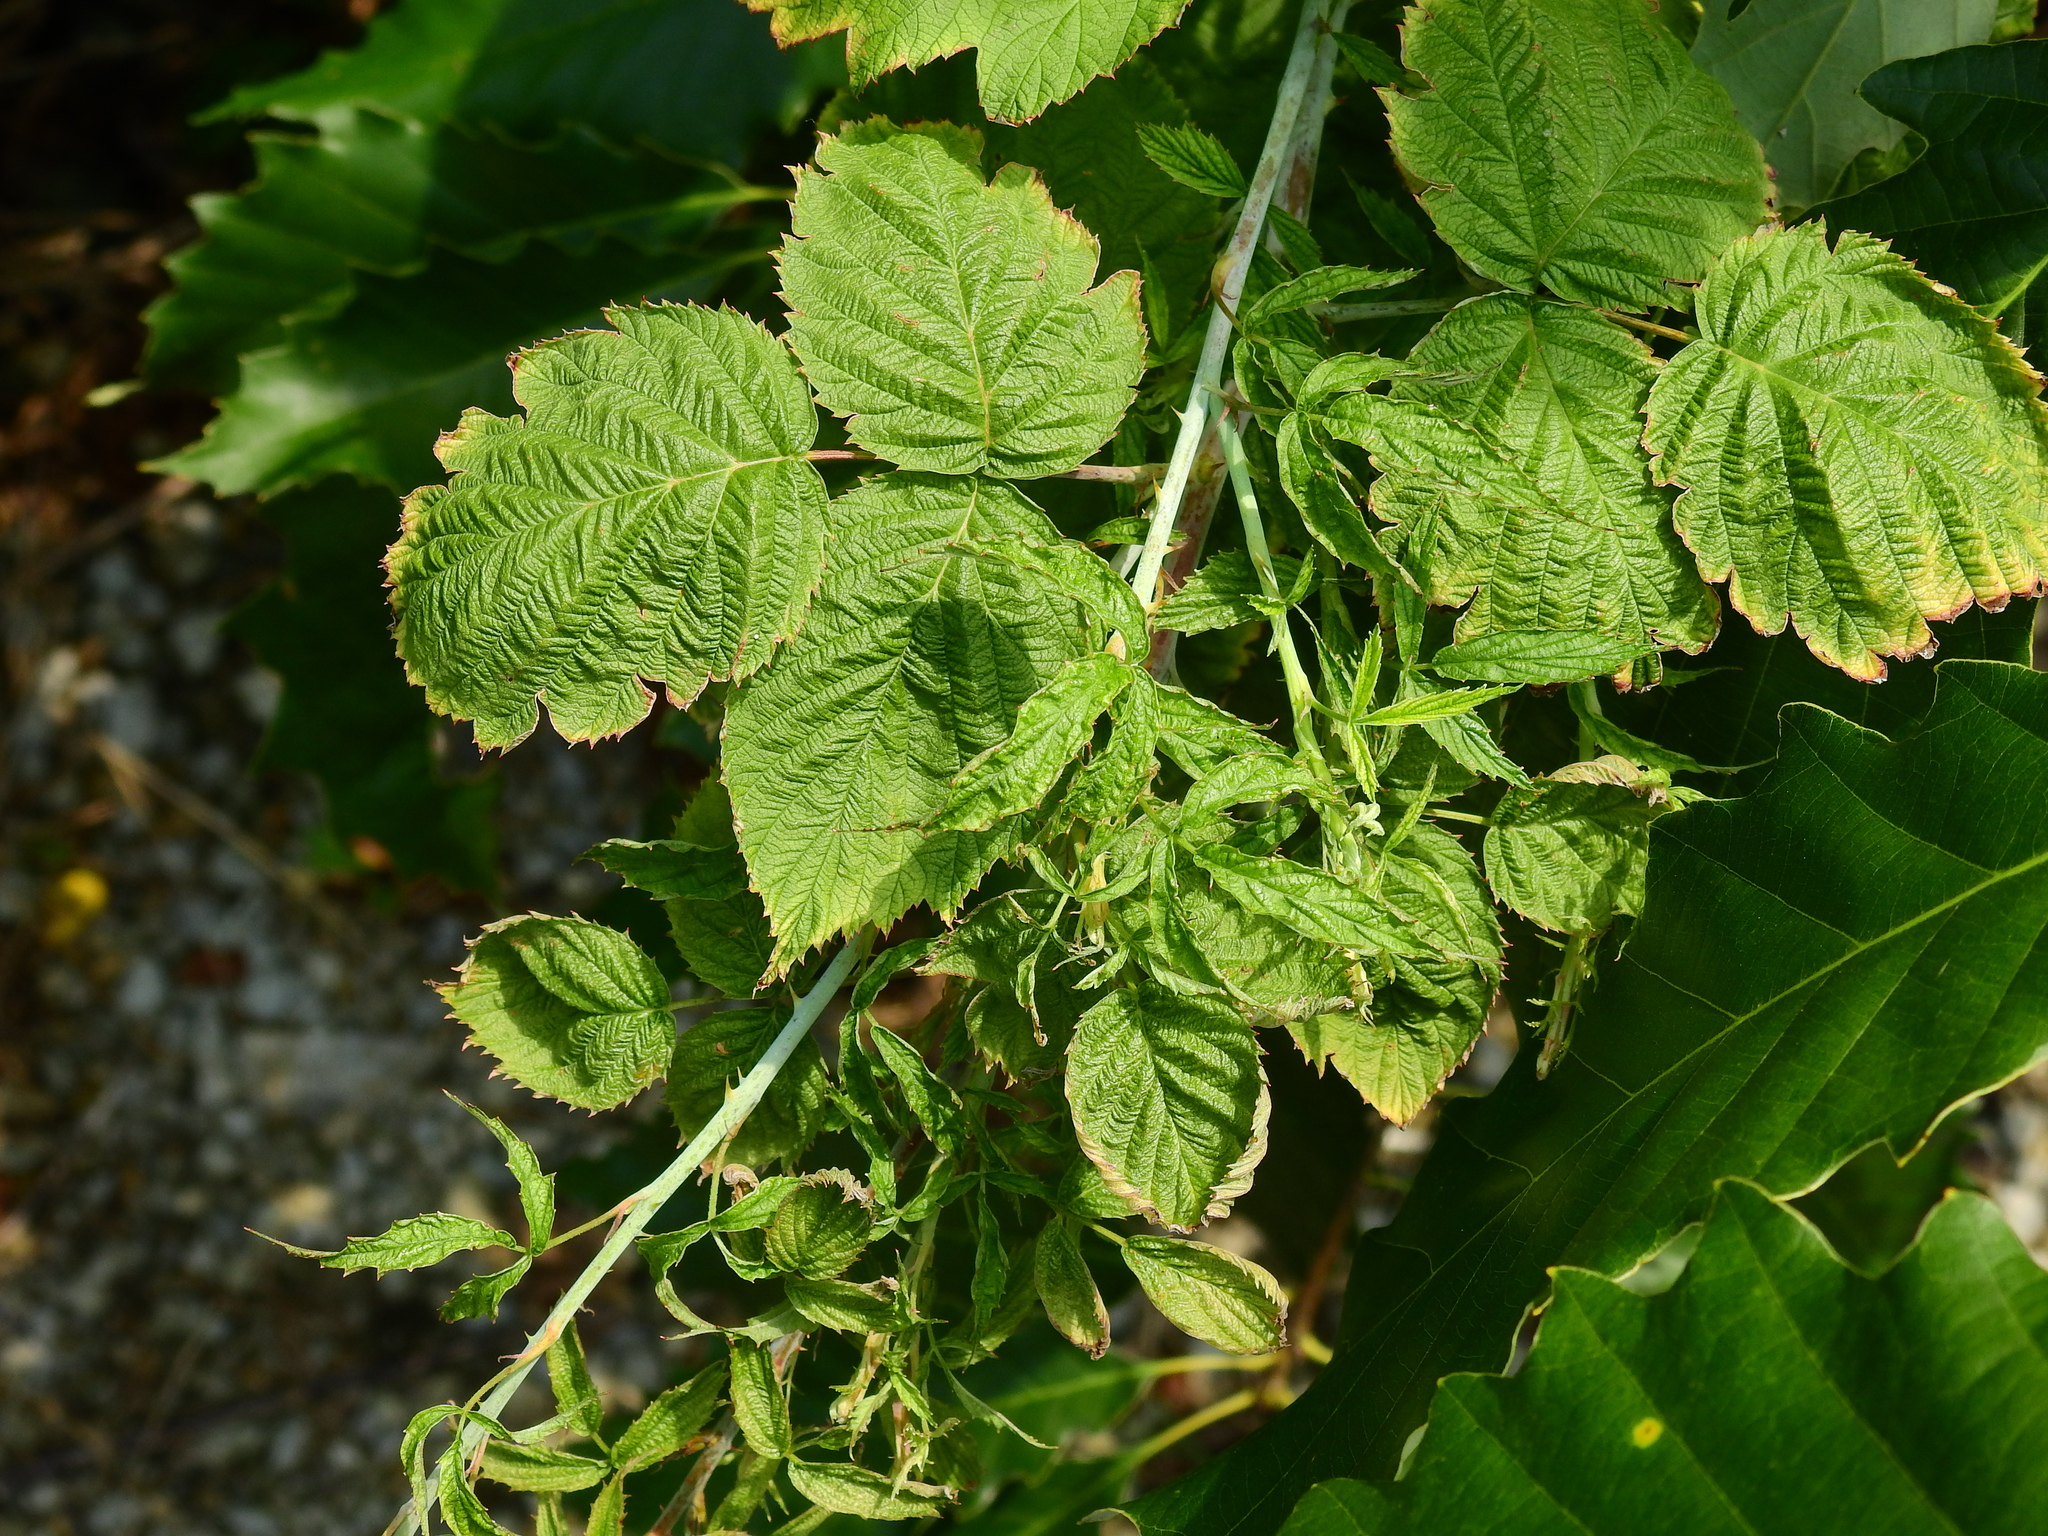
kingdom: Plantae
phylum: Tracheophyta
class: Magnoliopsida
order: Rosales
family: Rosaceae
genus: Rubus
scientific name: Rubus occidentalis
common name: Black raspberry
